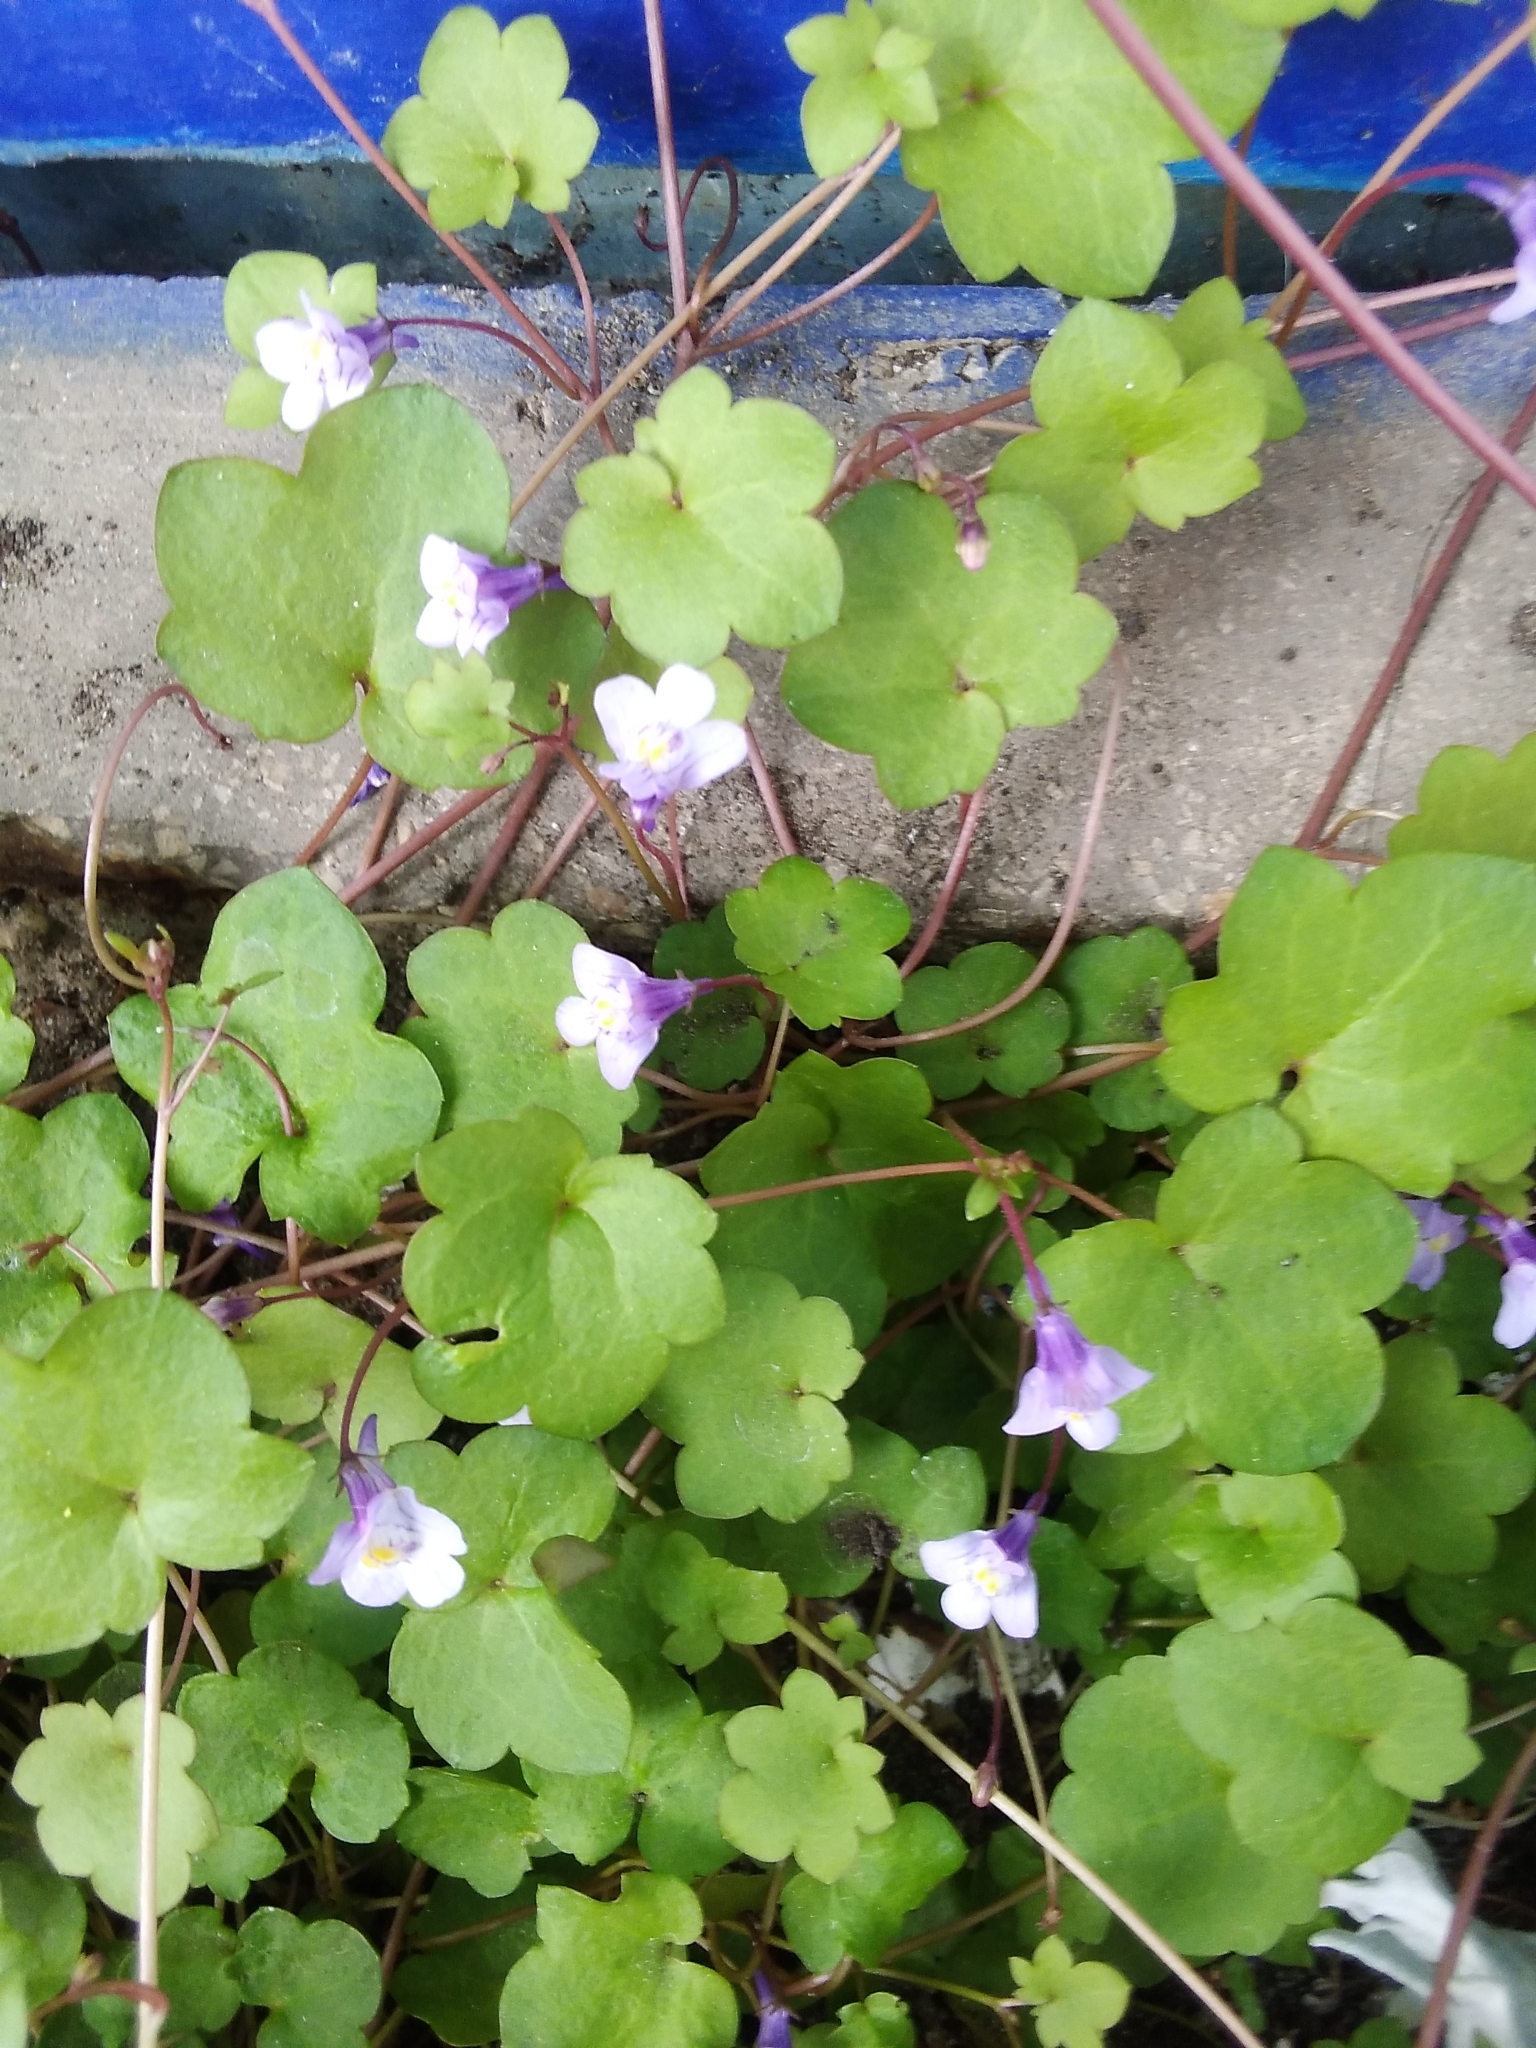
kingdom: Plantae
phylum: Tracheophyta
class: Magnoliopsida
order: Lamiales
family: Plantaginaceae
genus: Cymbalaria
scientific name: Cymbalaria muralis
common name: Ivy-leaved toadflax
